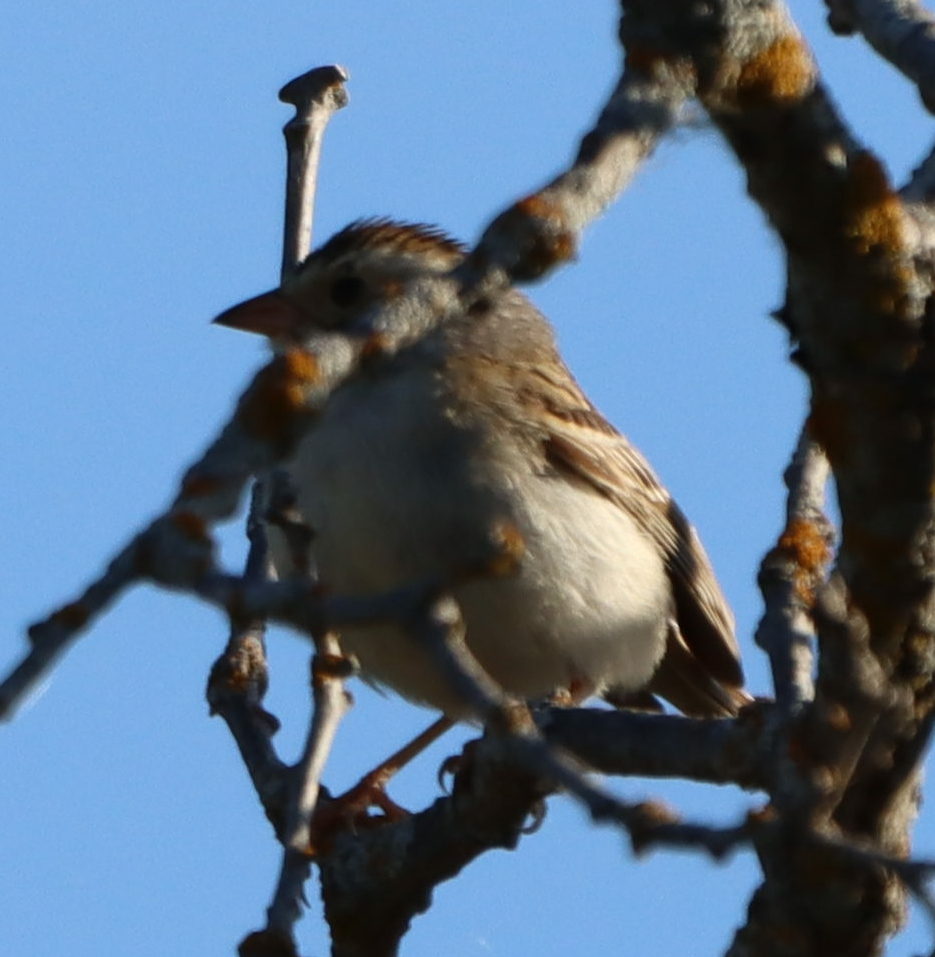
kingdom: Animalia
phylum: Chordata
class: Aves
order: Passeriformes
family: Passerellidae
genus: Spizella
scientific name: Spizella pallida
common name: Clay-colored sparrow
